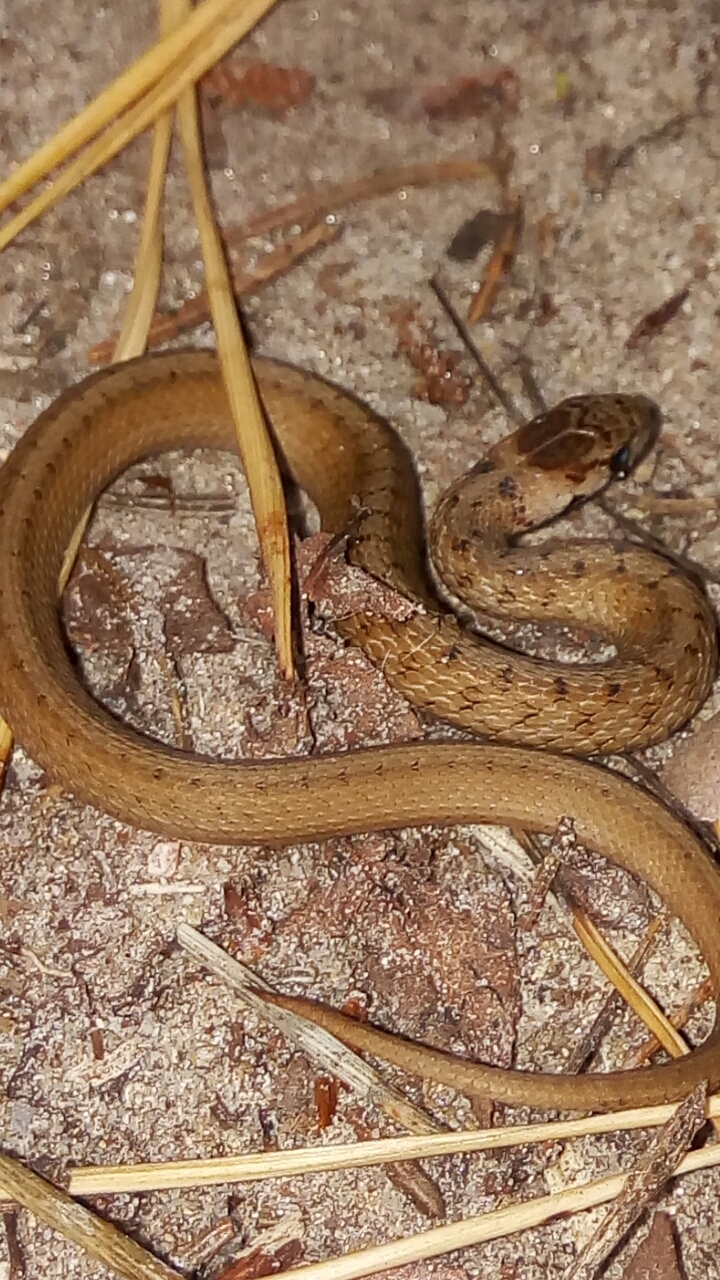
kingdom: Animalia
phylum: Chordata
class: Squamata
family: Colubridae
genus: Storeria
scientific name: Storeria dekayi
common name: (dekay’s) brown snake
